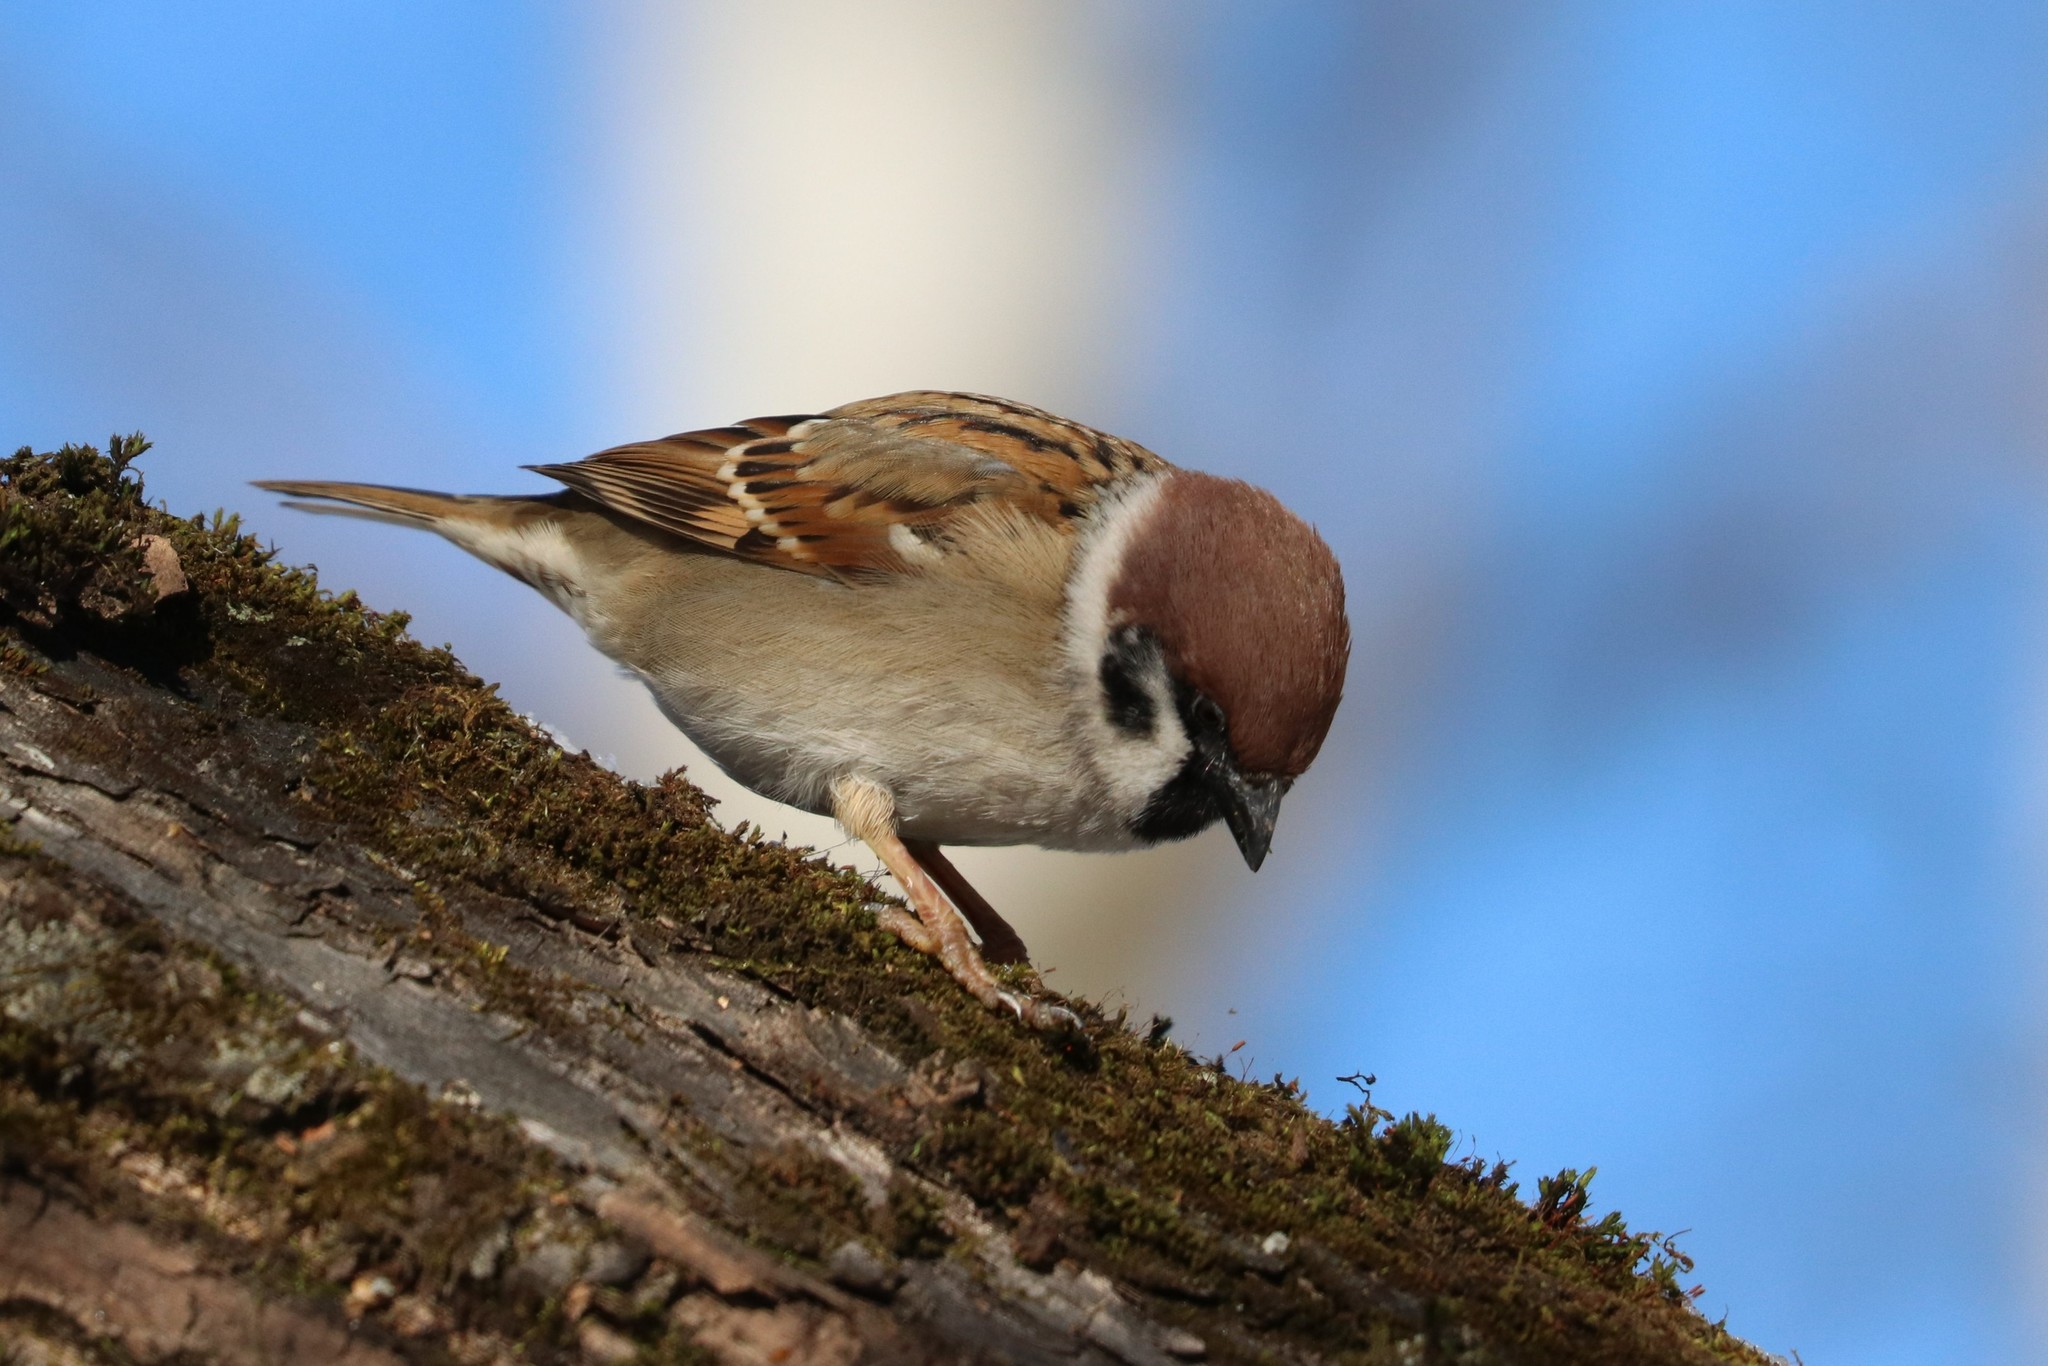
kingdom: Animalia
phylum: Chordata
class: Aves
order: Passeriformes
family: Passeridae
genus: Passer
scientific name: Passer montanus
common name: Eurasian tree sparrow
